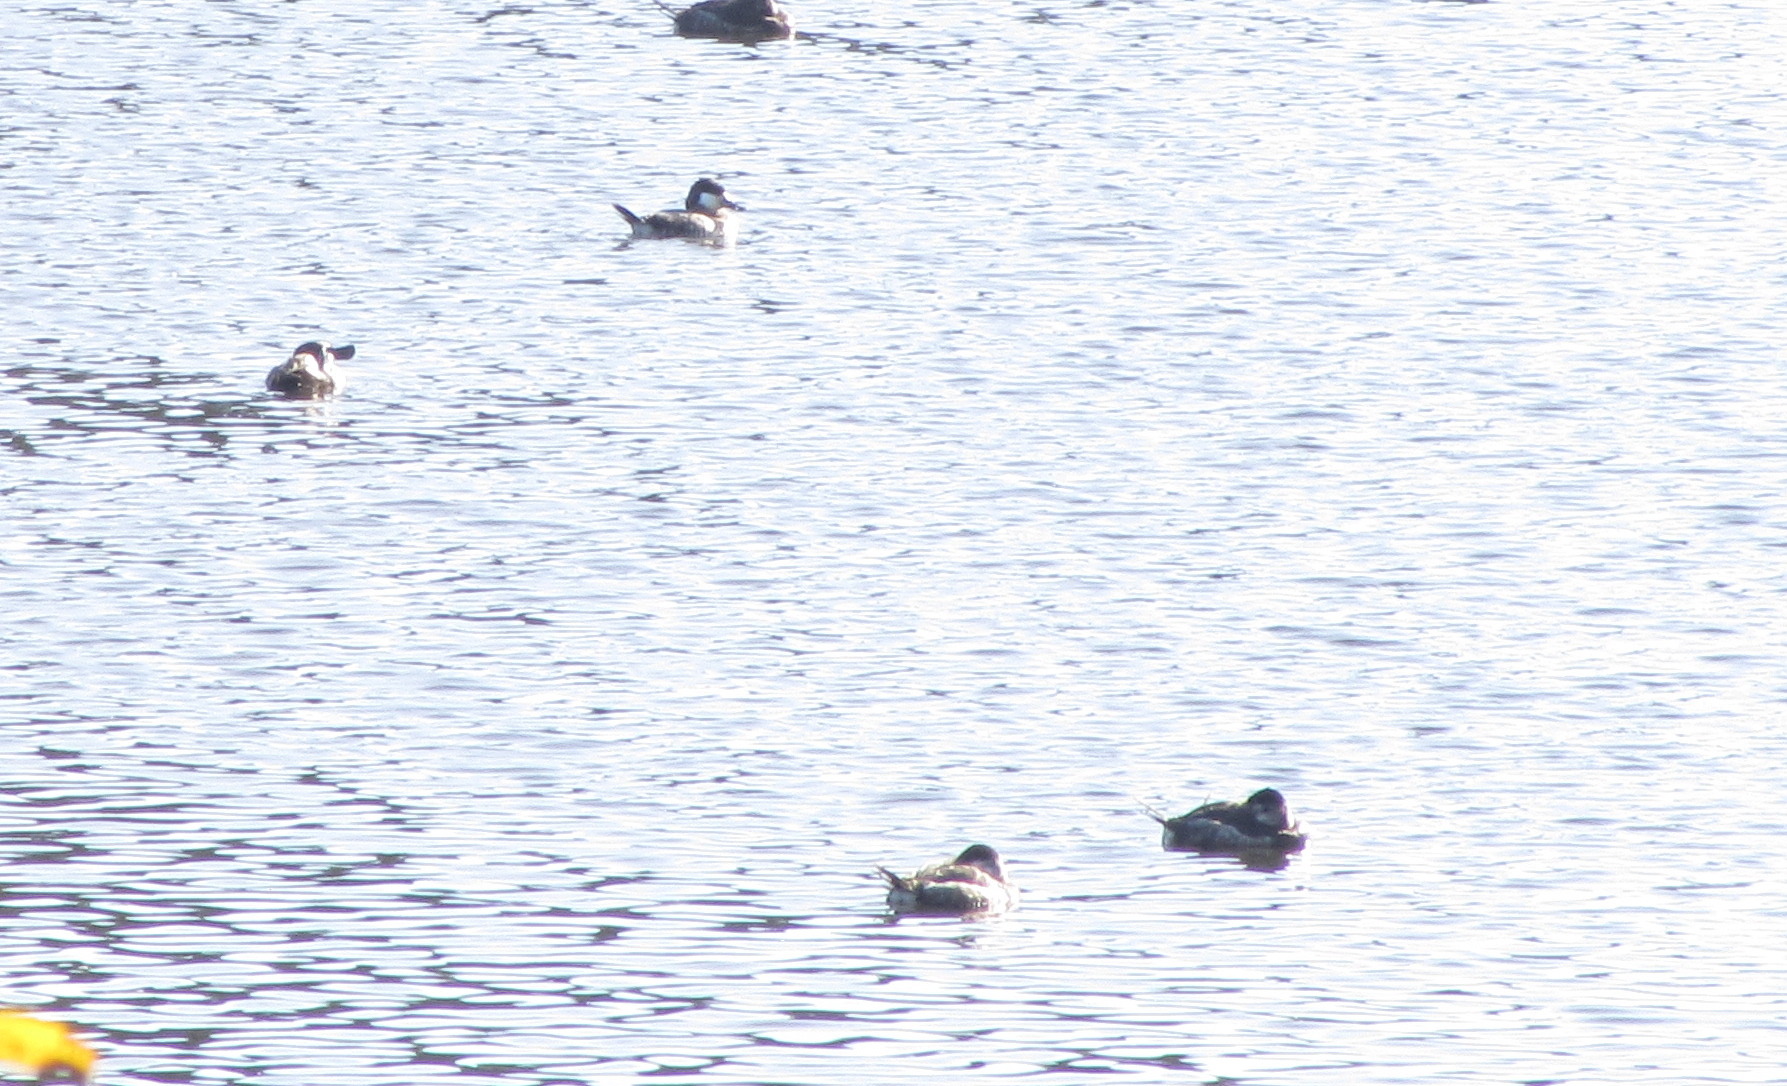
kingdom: Animalia
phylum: Chordata
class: Aves
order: Anseriformes
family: Anatidae
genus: Oxyura
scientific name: Oxyura jamaicensis
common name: Ruddy duck
